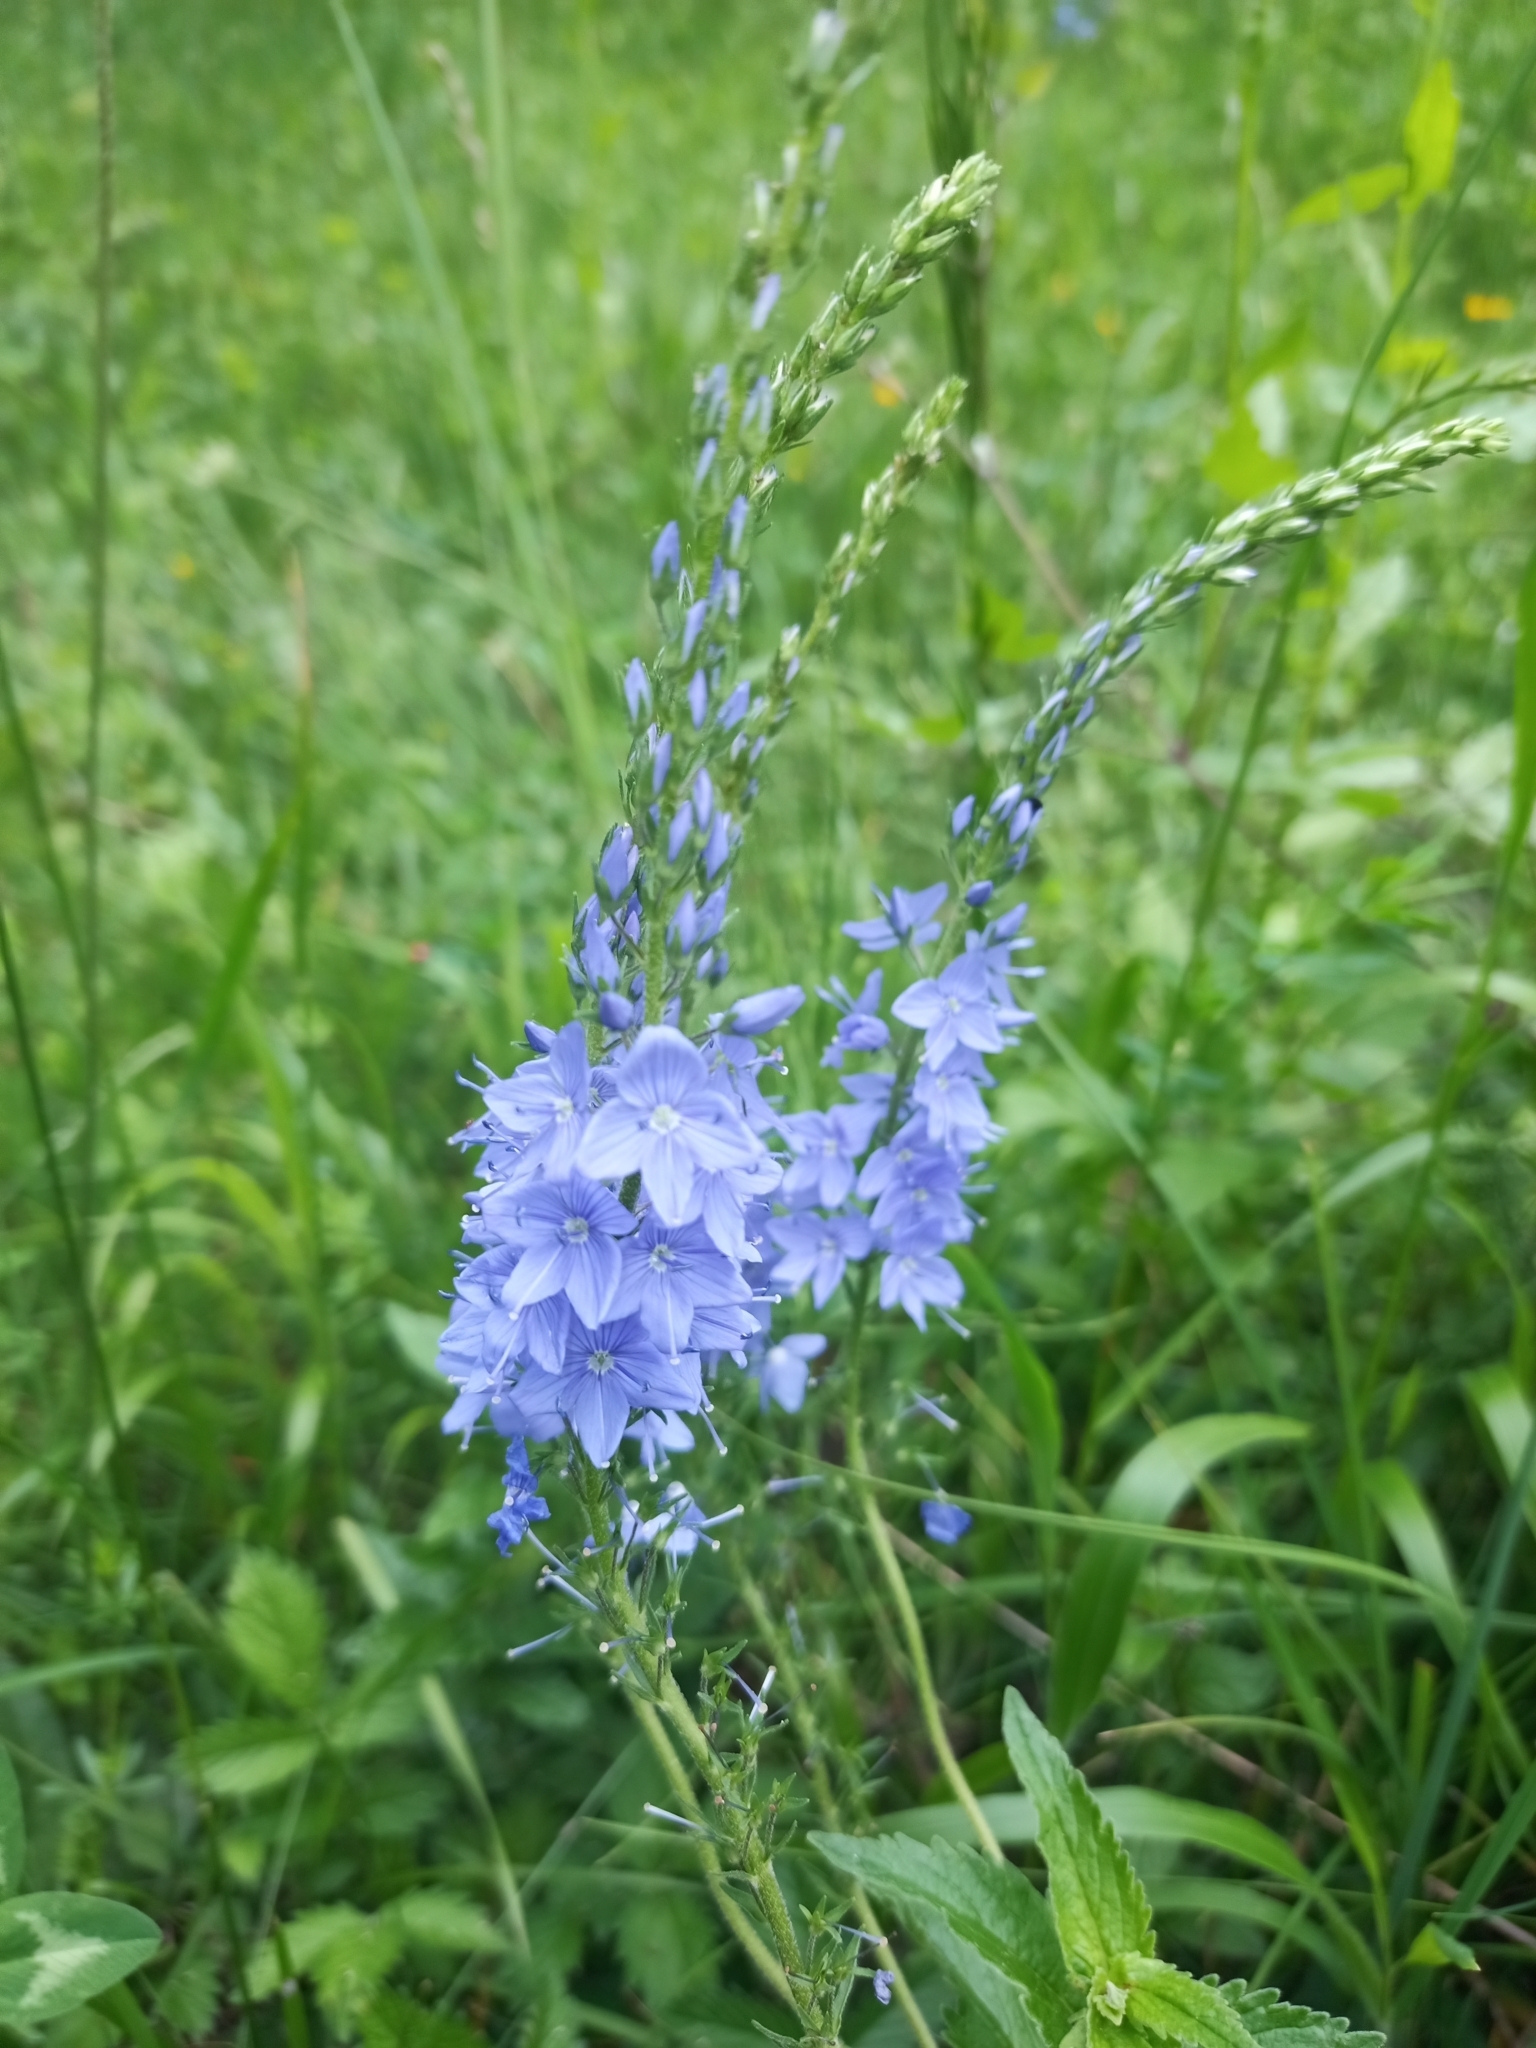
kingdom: Plantae
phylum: Tracheophyta
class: Magnoliopsida
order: Lamiales
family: Plantaginaceae
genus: Veronica
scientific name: Veronica teucrium
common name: Large speedwell
